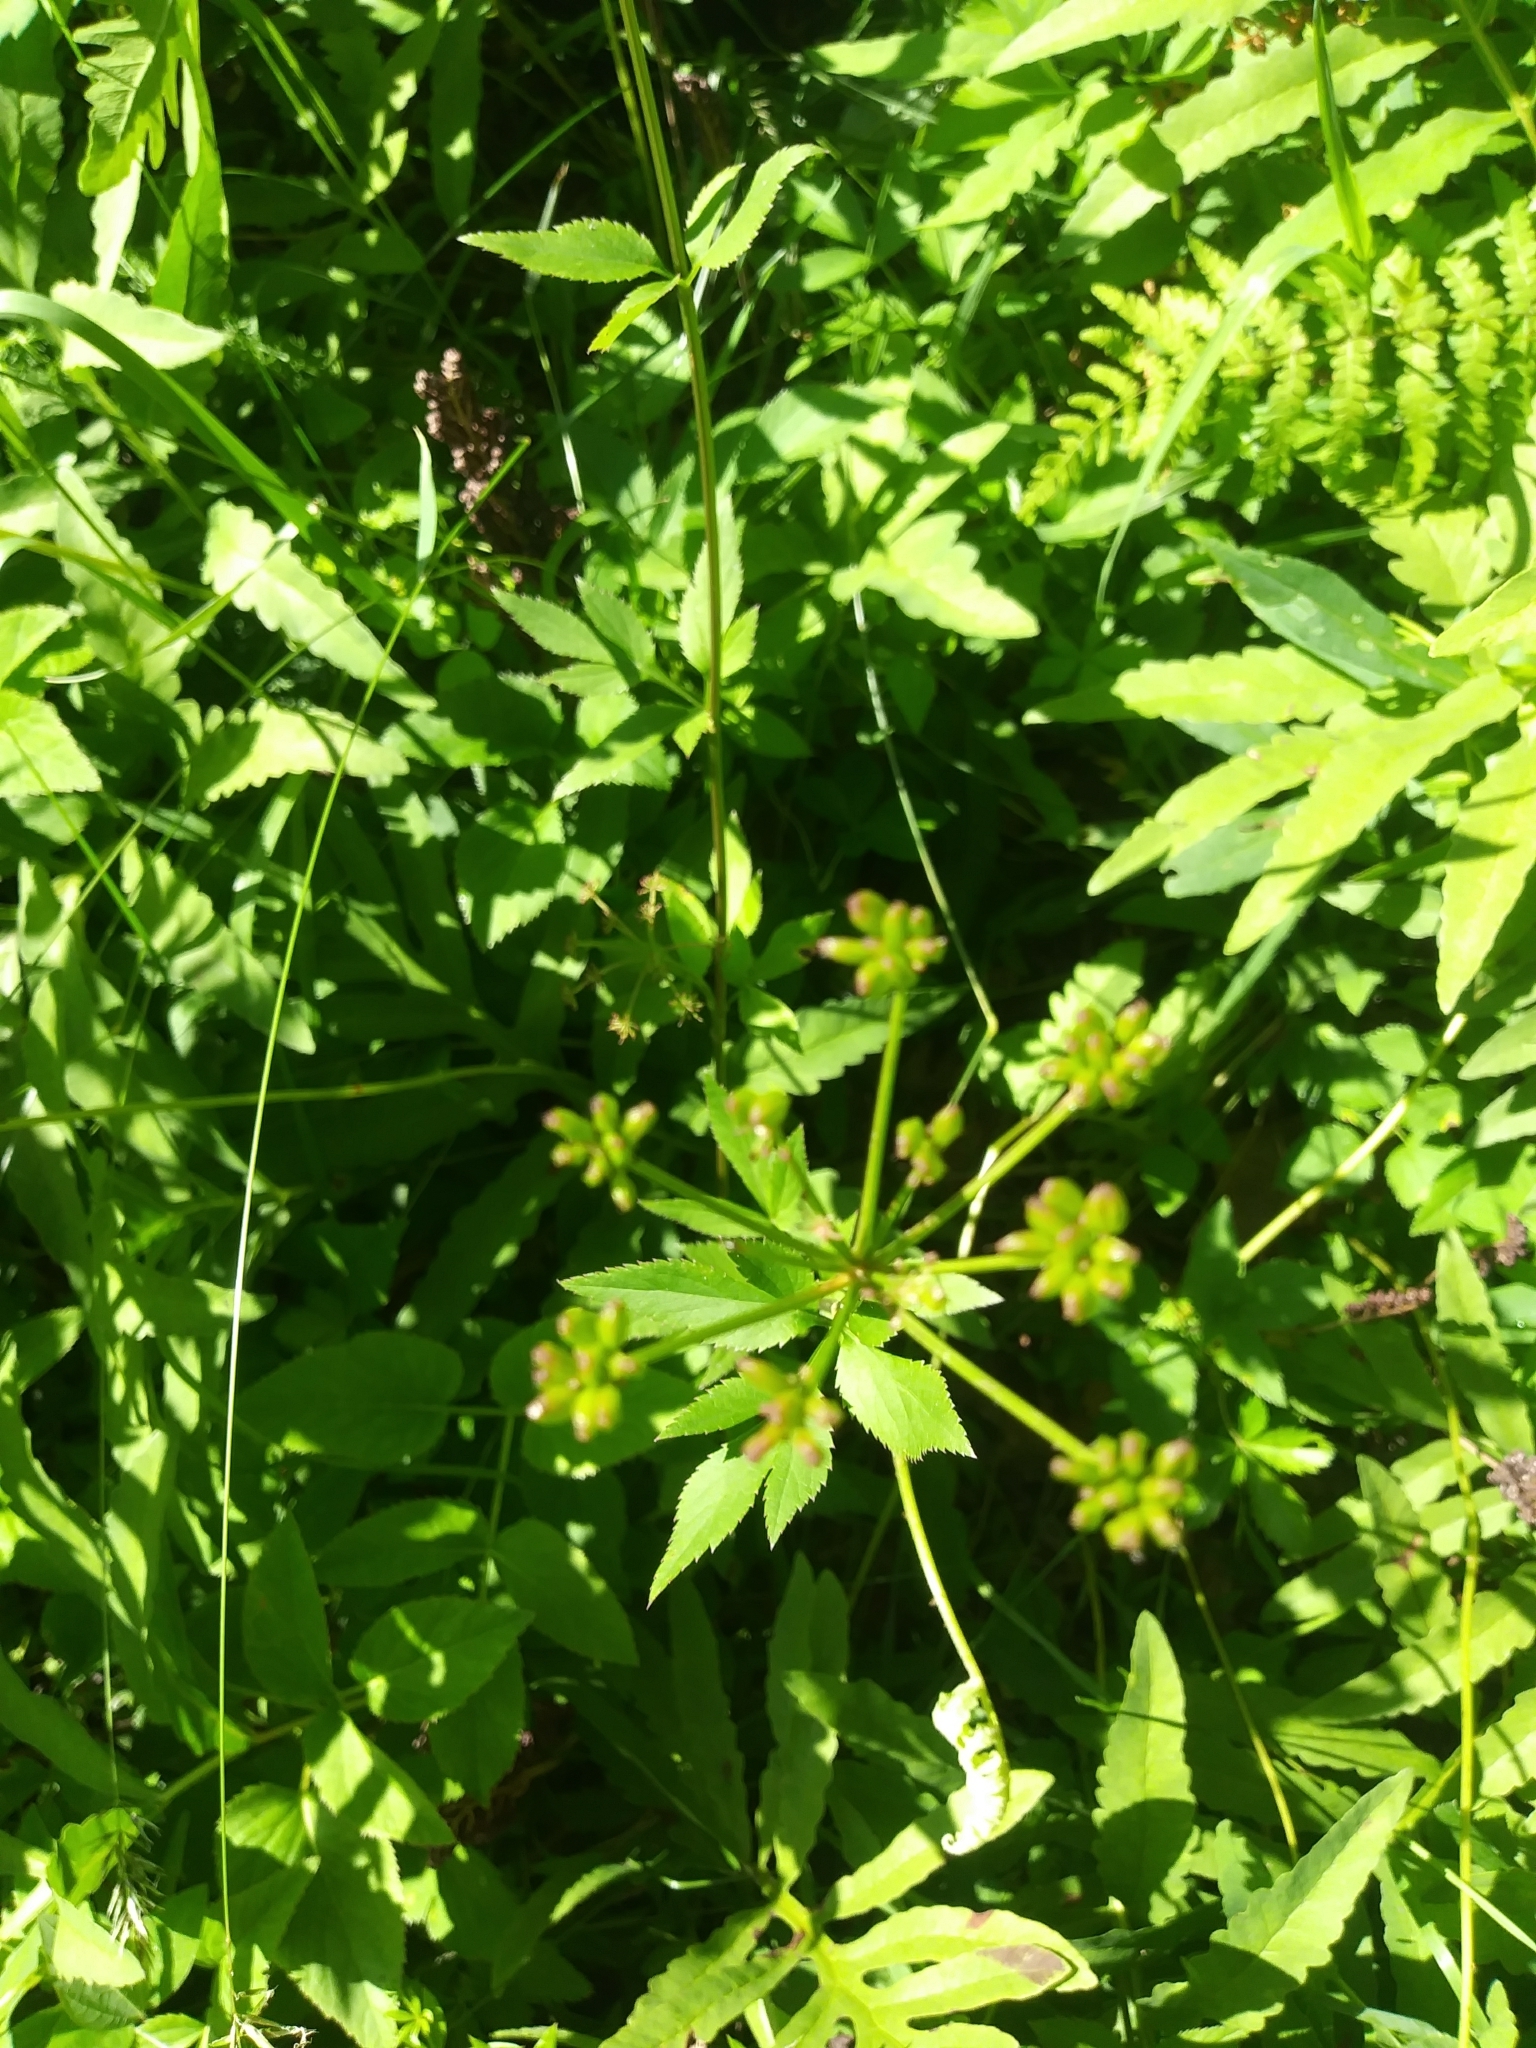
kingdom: Plantae
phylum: Tracheophyta
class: Magnoliopsida
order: Apiales
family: Apiaceae
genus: Zizia
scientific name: Zizia aurea
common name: Golden alexanders
